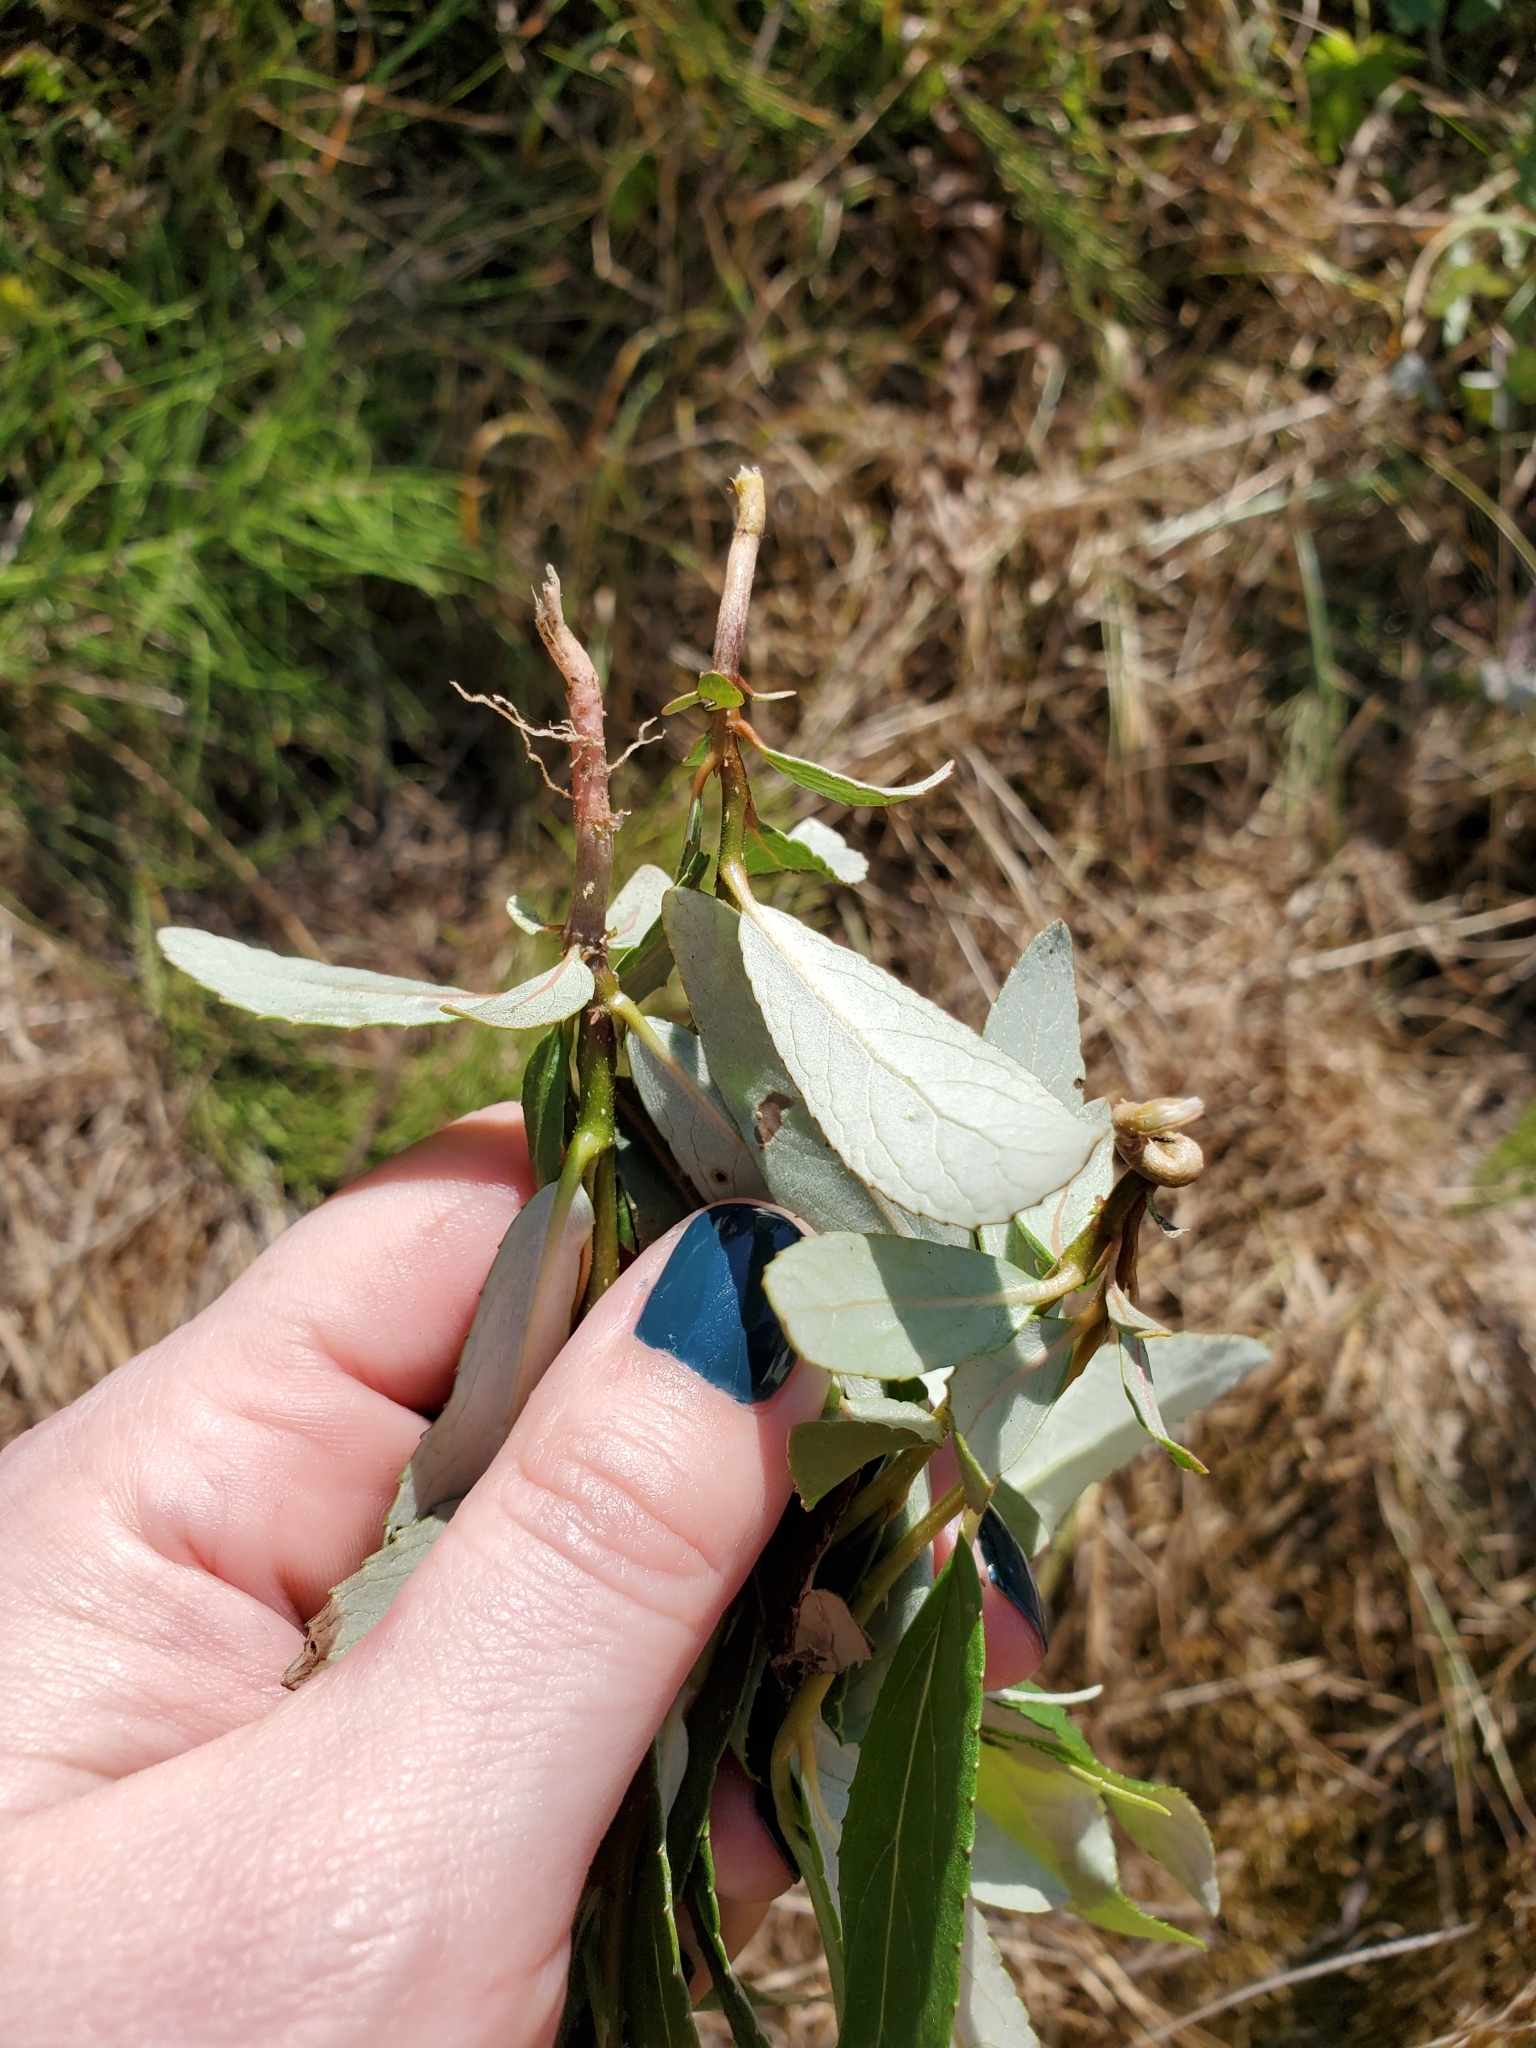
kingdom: Plantae
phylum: Tracheophyta
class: Magnoliopsida
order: Malpighiales
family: Salicaceae
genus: Populus
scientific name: Populus trichocarpa
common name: Black cottonwood
